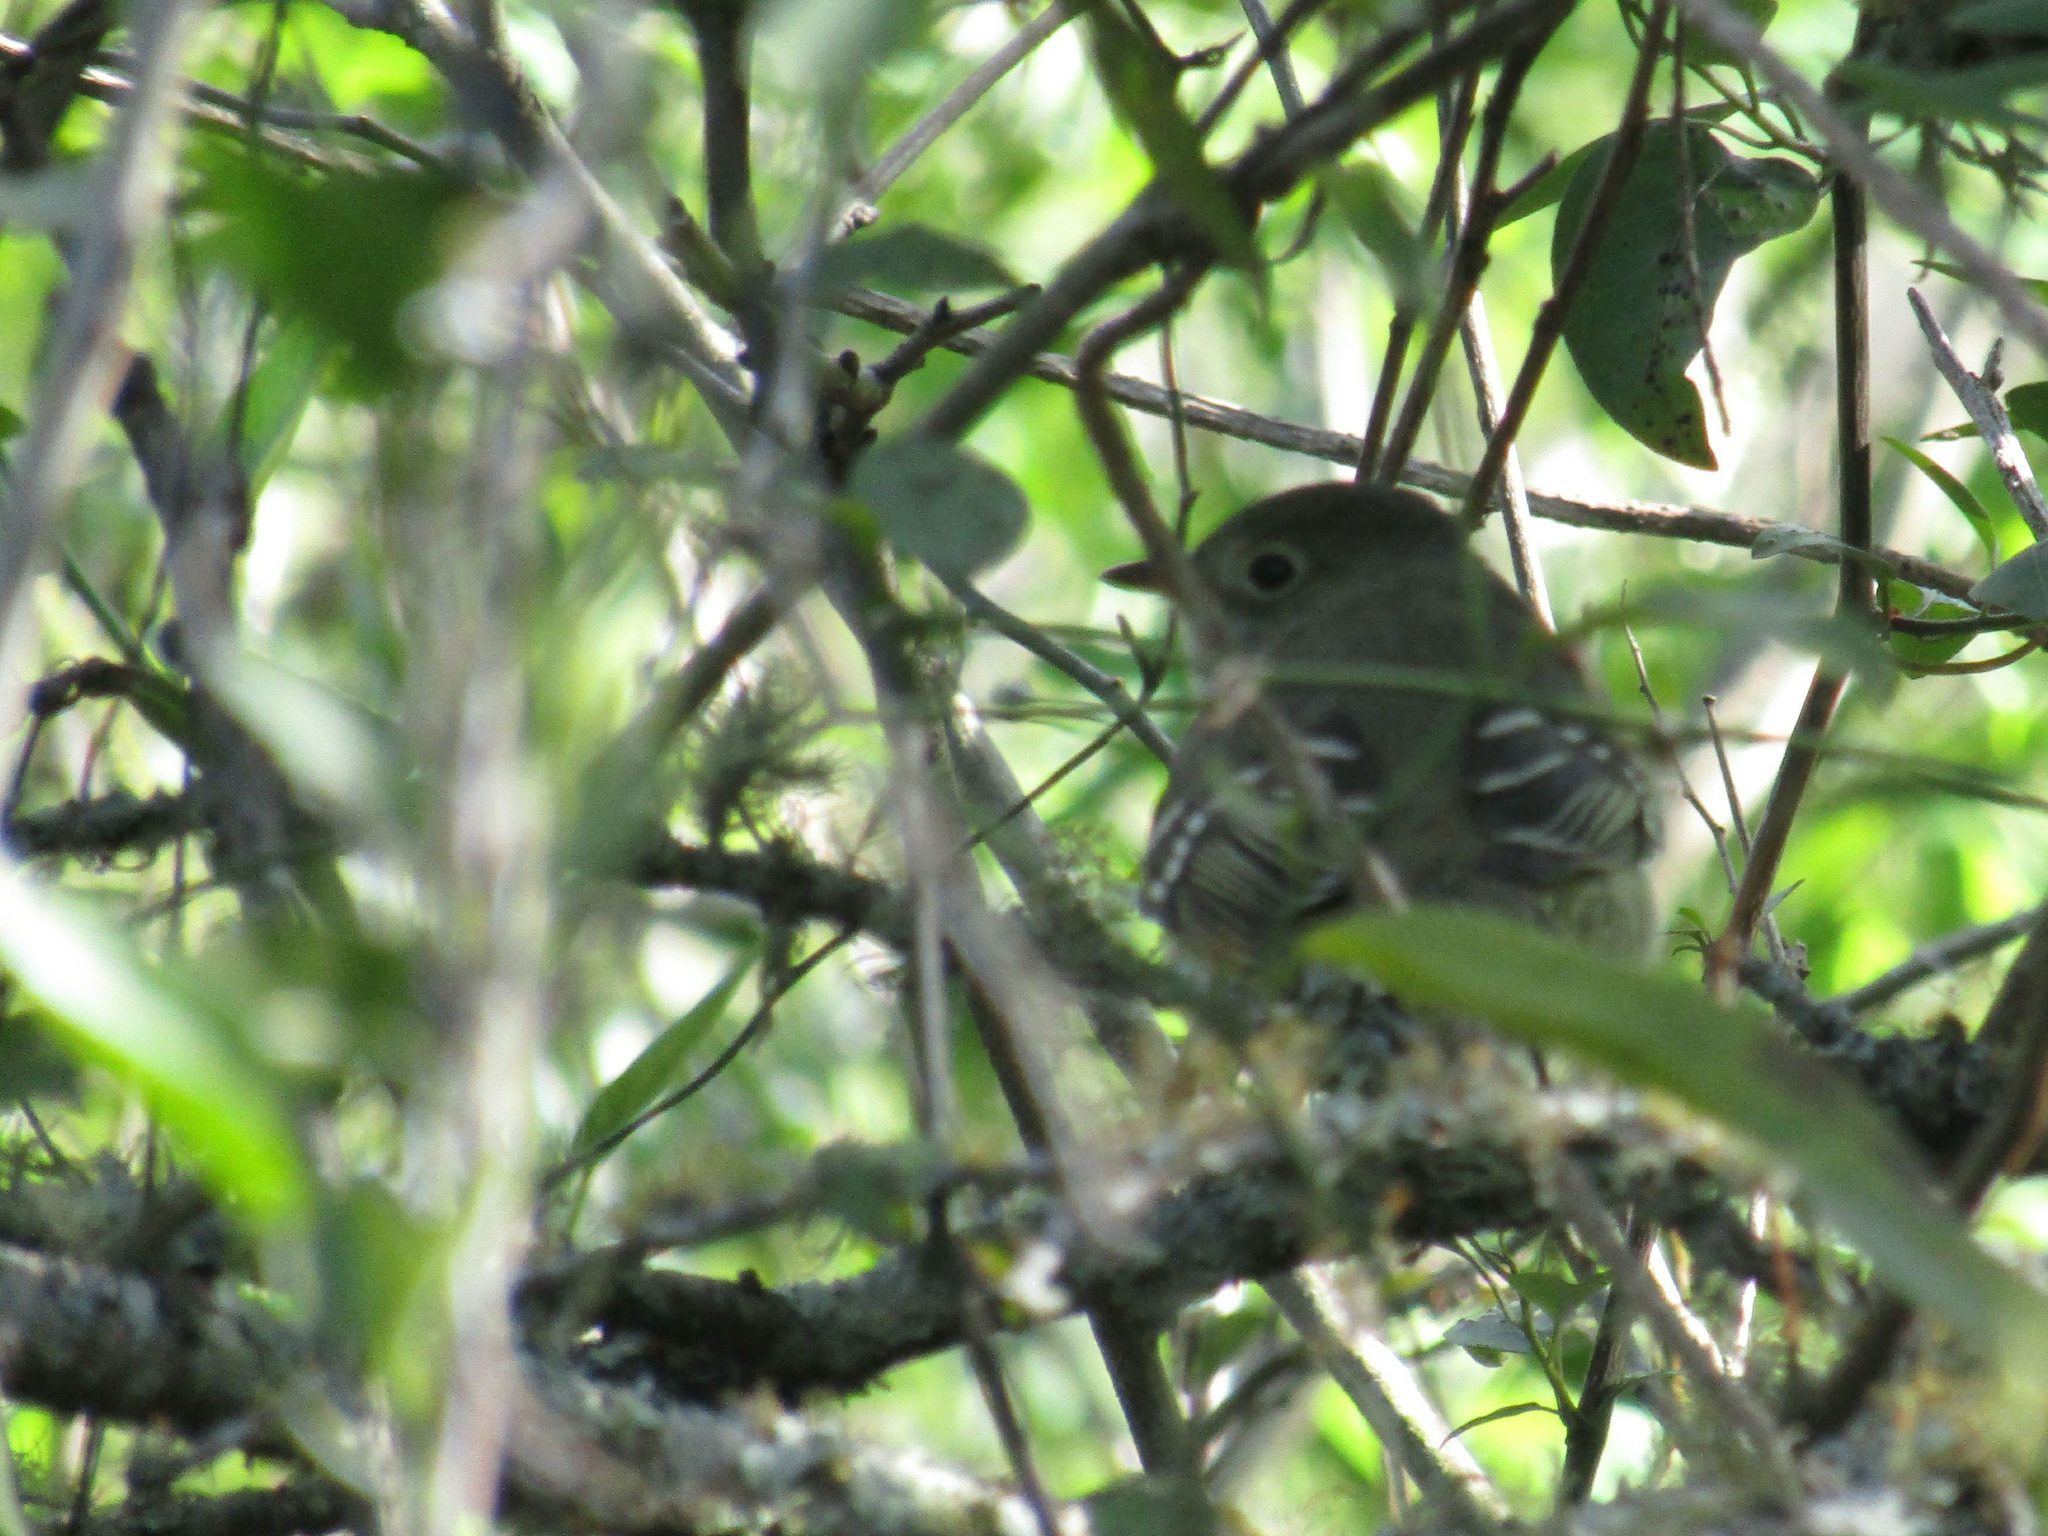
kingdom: Animalia
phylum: Chordata
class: Aves
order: Passeriformes
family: Tyrannidae
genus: Elaenia
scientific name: Elaenia parvirostris
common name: Small-billed elaenia
